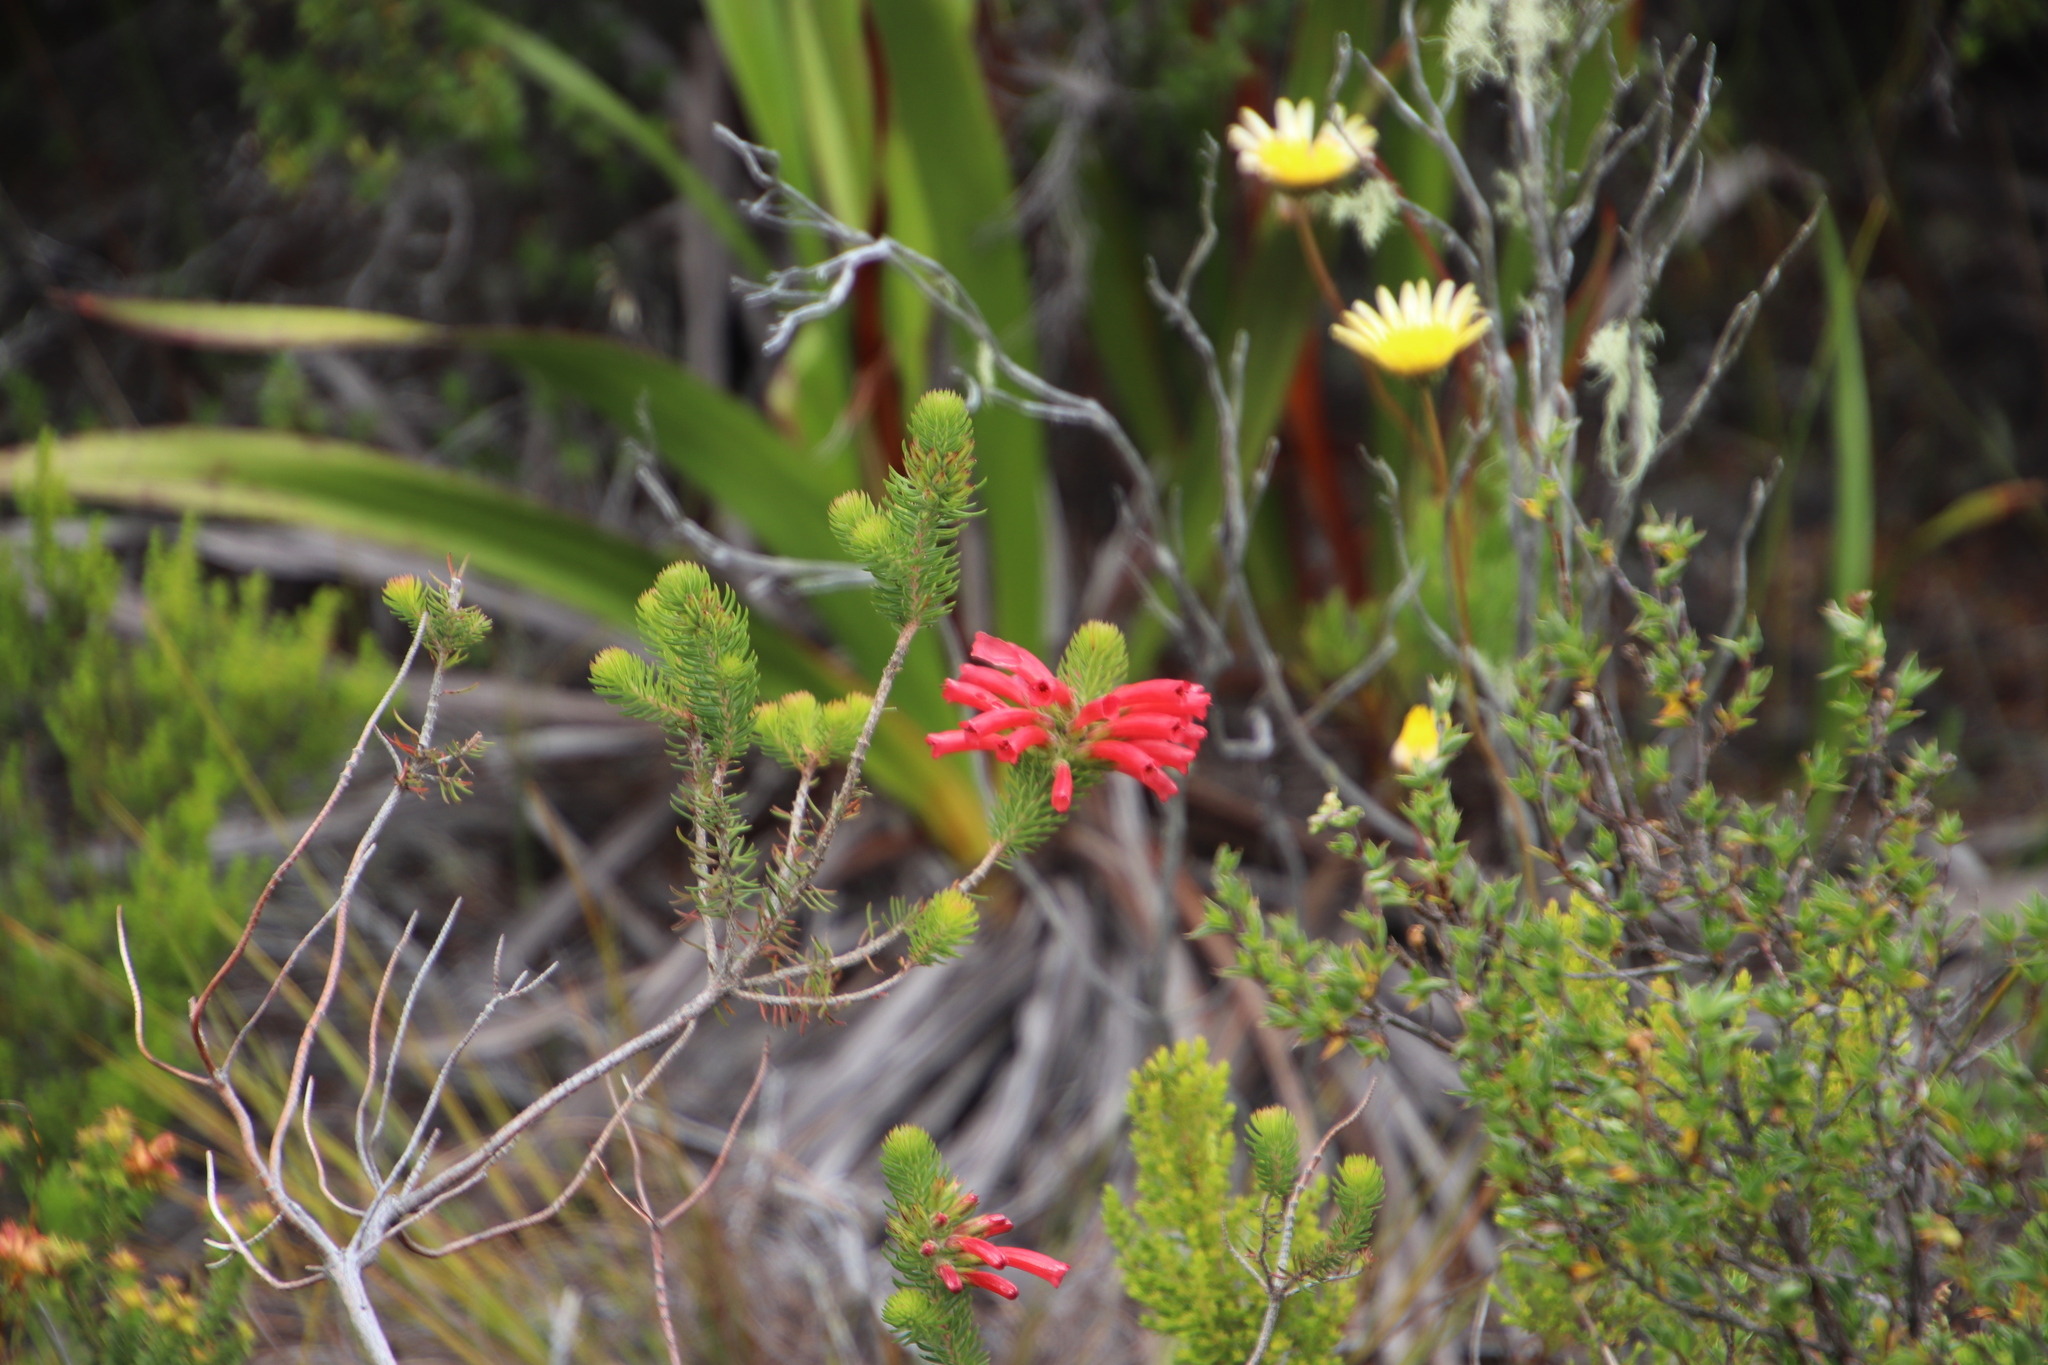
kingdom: Plantae
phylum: Tracheophyta
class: Magnoliopsida
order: Ericales
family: Ericaceae
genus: Erica
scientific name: Erica abietina
